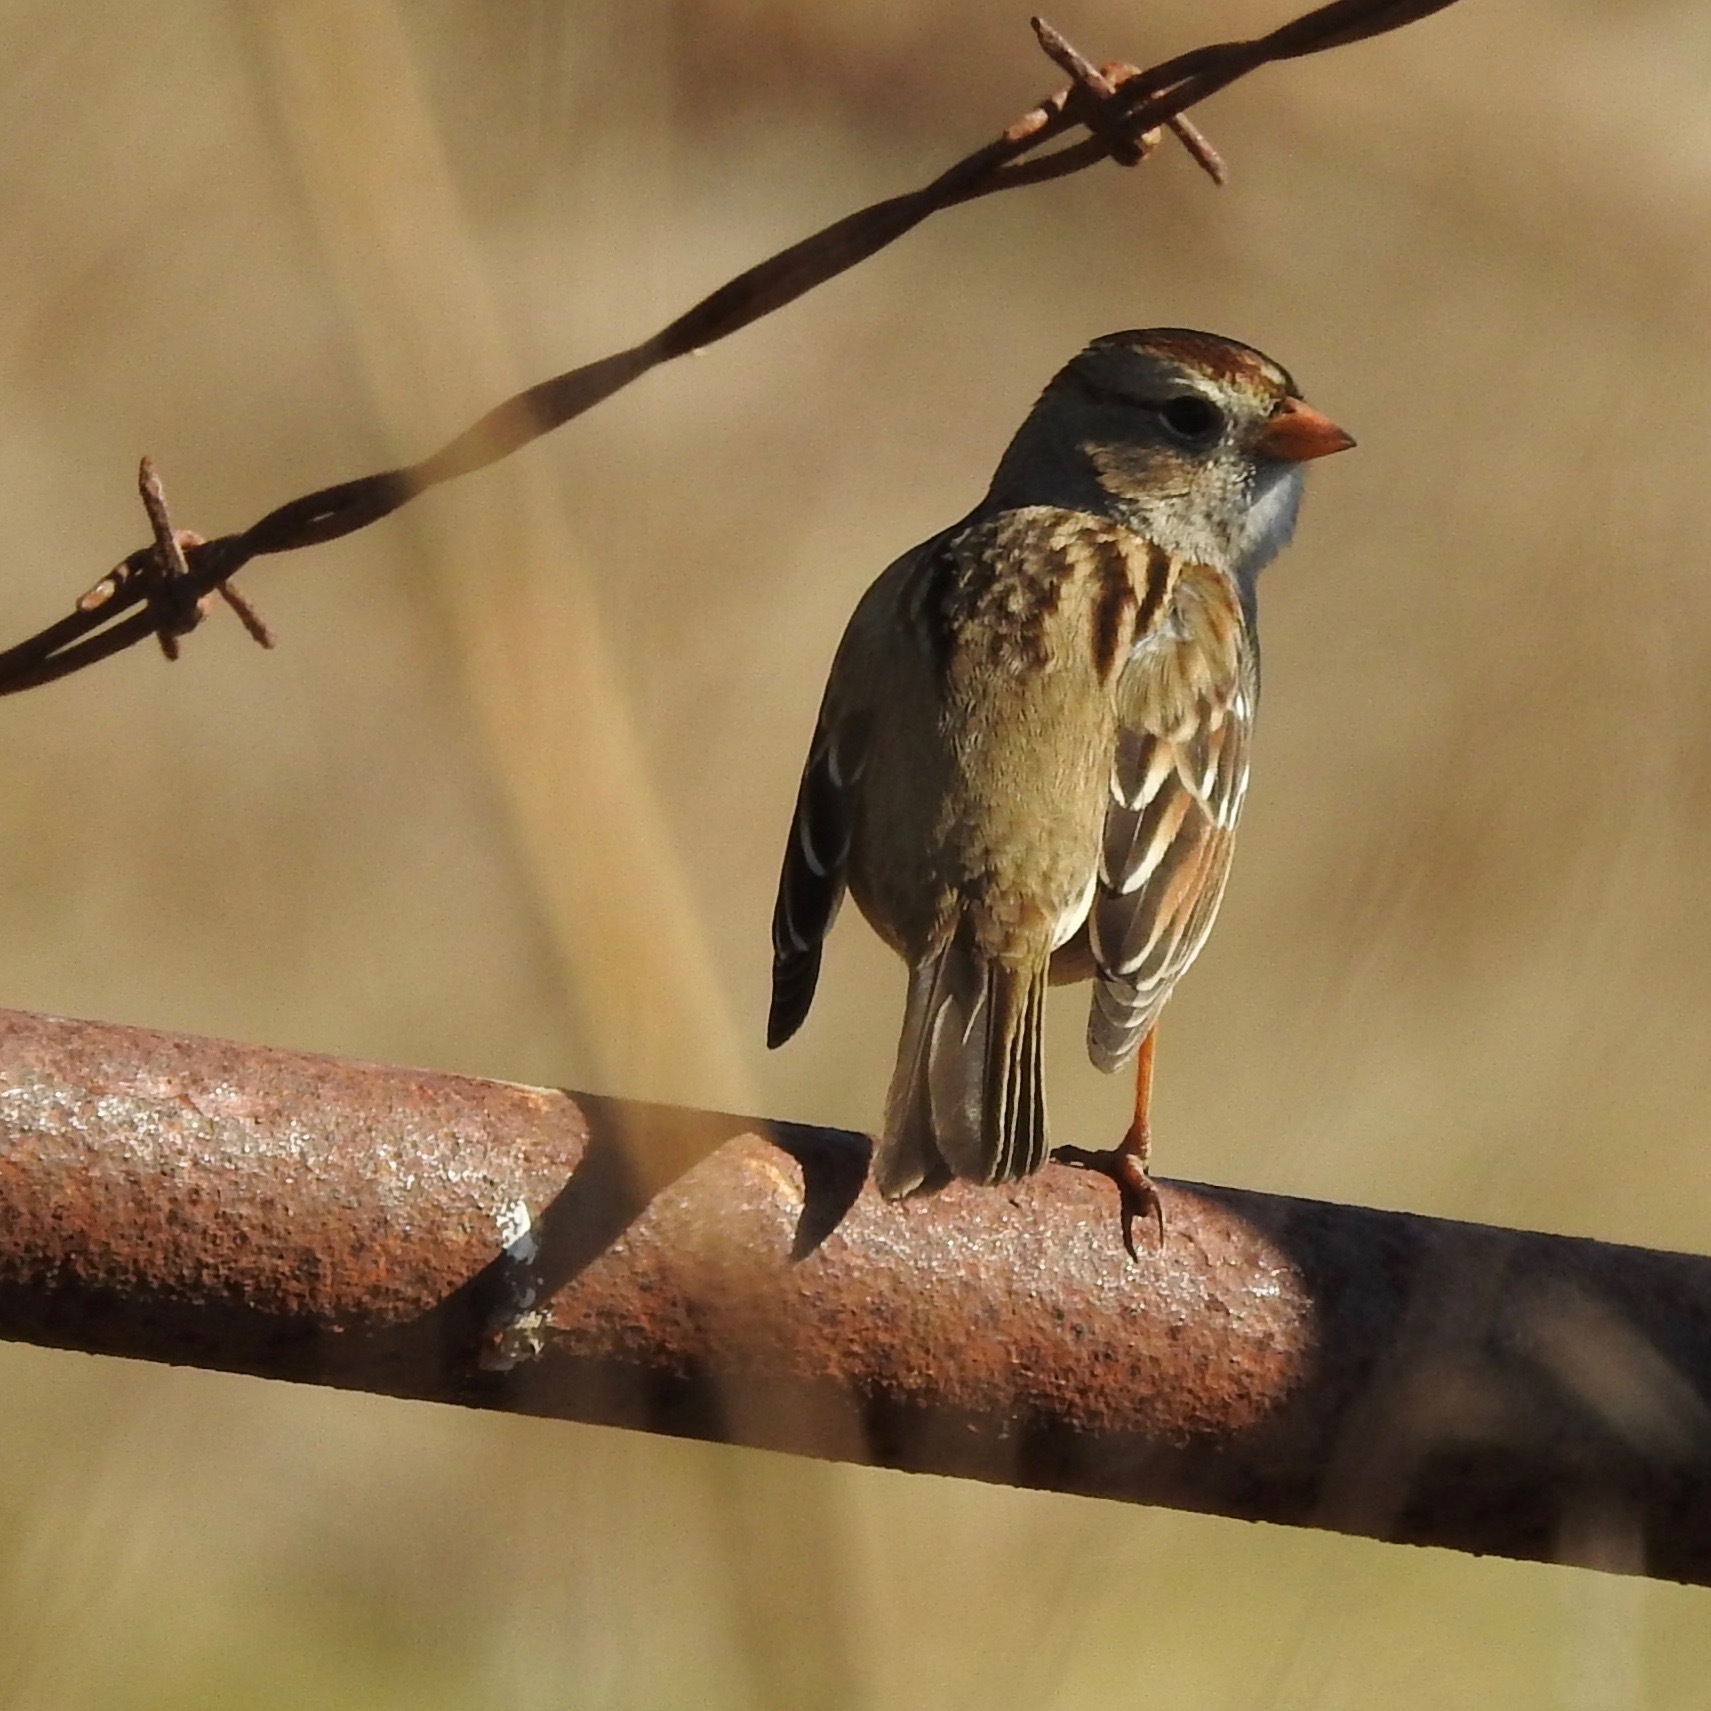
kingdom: Animalia
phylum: Chordata
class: Aves
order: Passeriformes
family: Passerellidae
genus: Zonotrichia
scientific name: Zonotrichia leucophrys
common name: White-crowned sparrow
